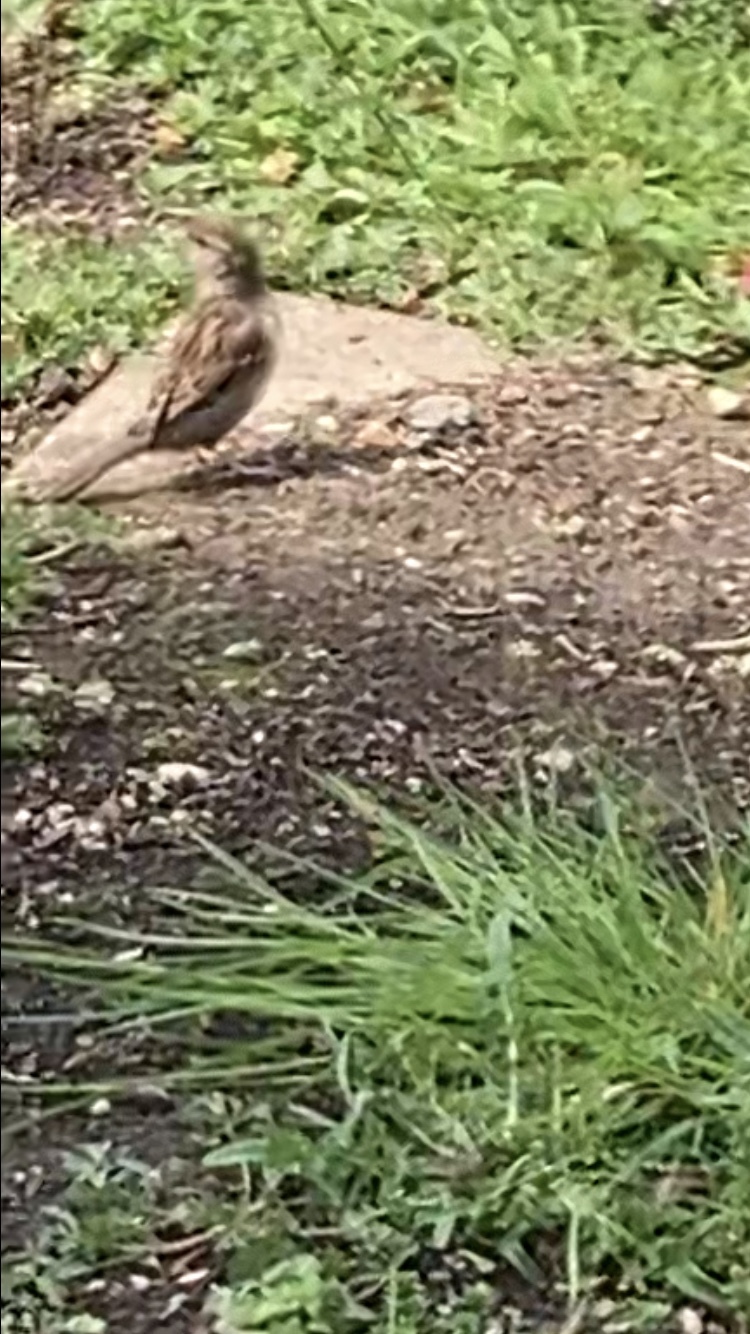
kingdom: Animalia
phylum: Chordata
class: Aves
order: Passeriformes
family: Passeridae
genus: Passer
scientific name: Passer domesticus
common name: House sparrow
